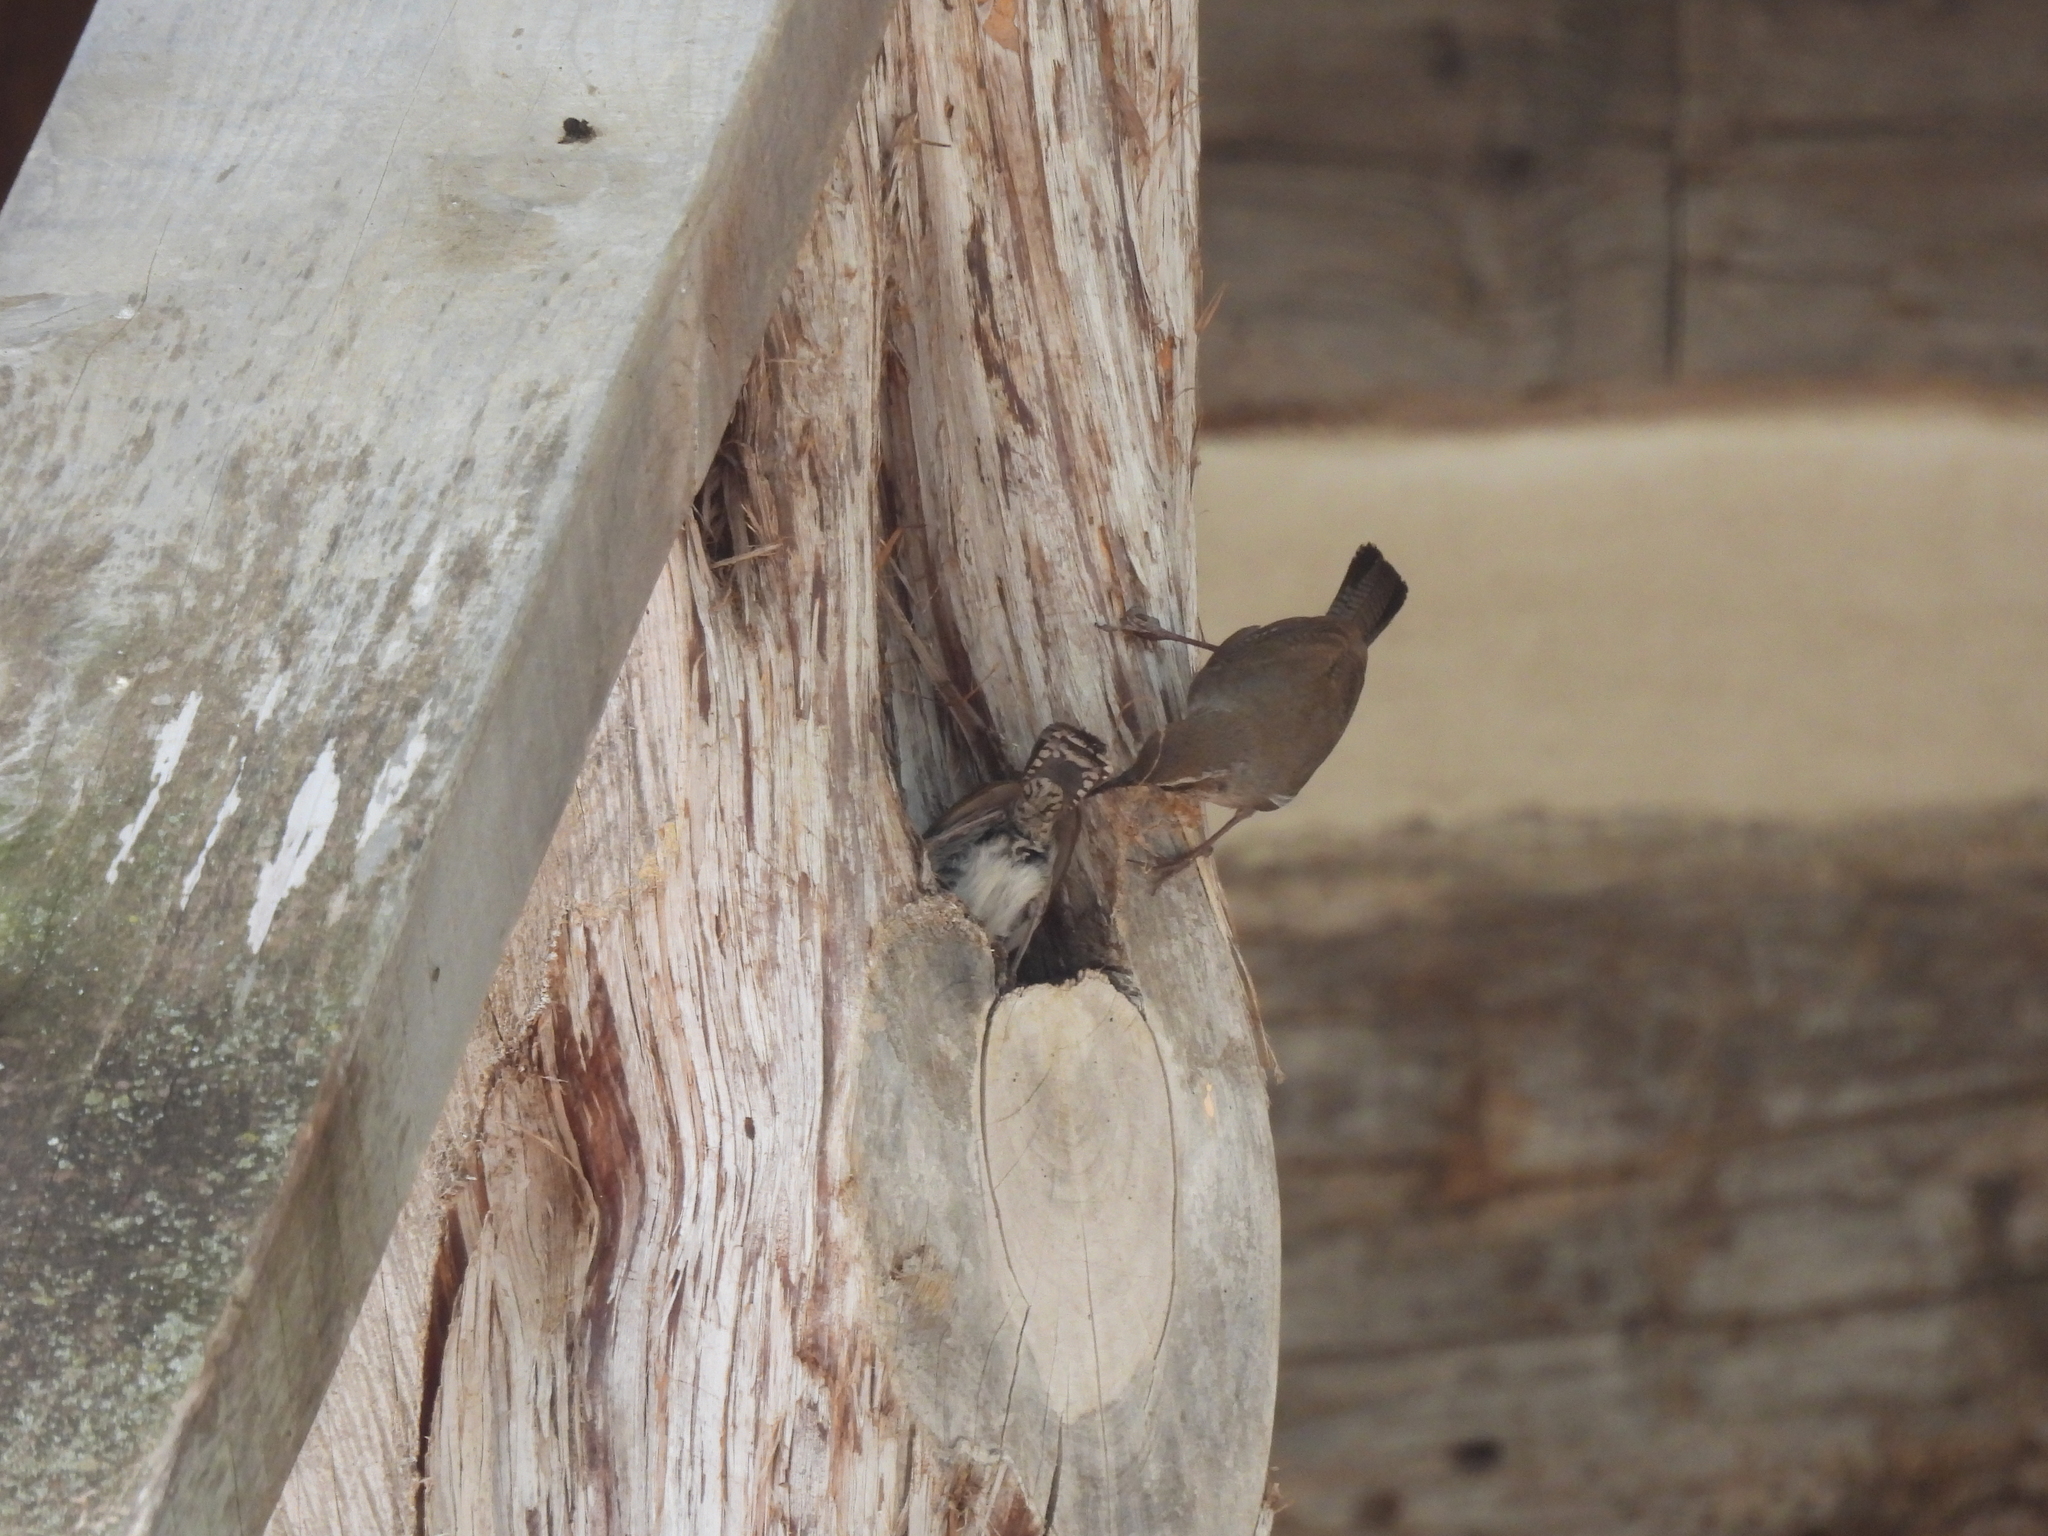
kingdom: Animalia
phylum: Chordata
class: Aves
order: Passeriformes
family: Troglodytidae
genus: Thryomanes
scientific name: Thryomanes bewickii
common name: Bewick's wren
